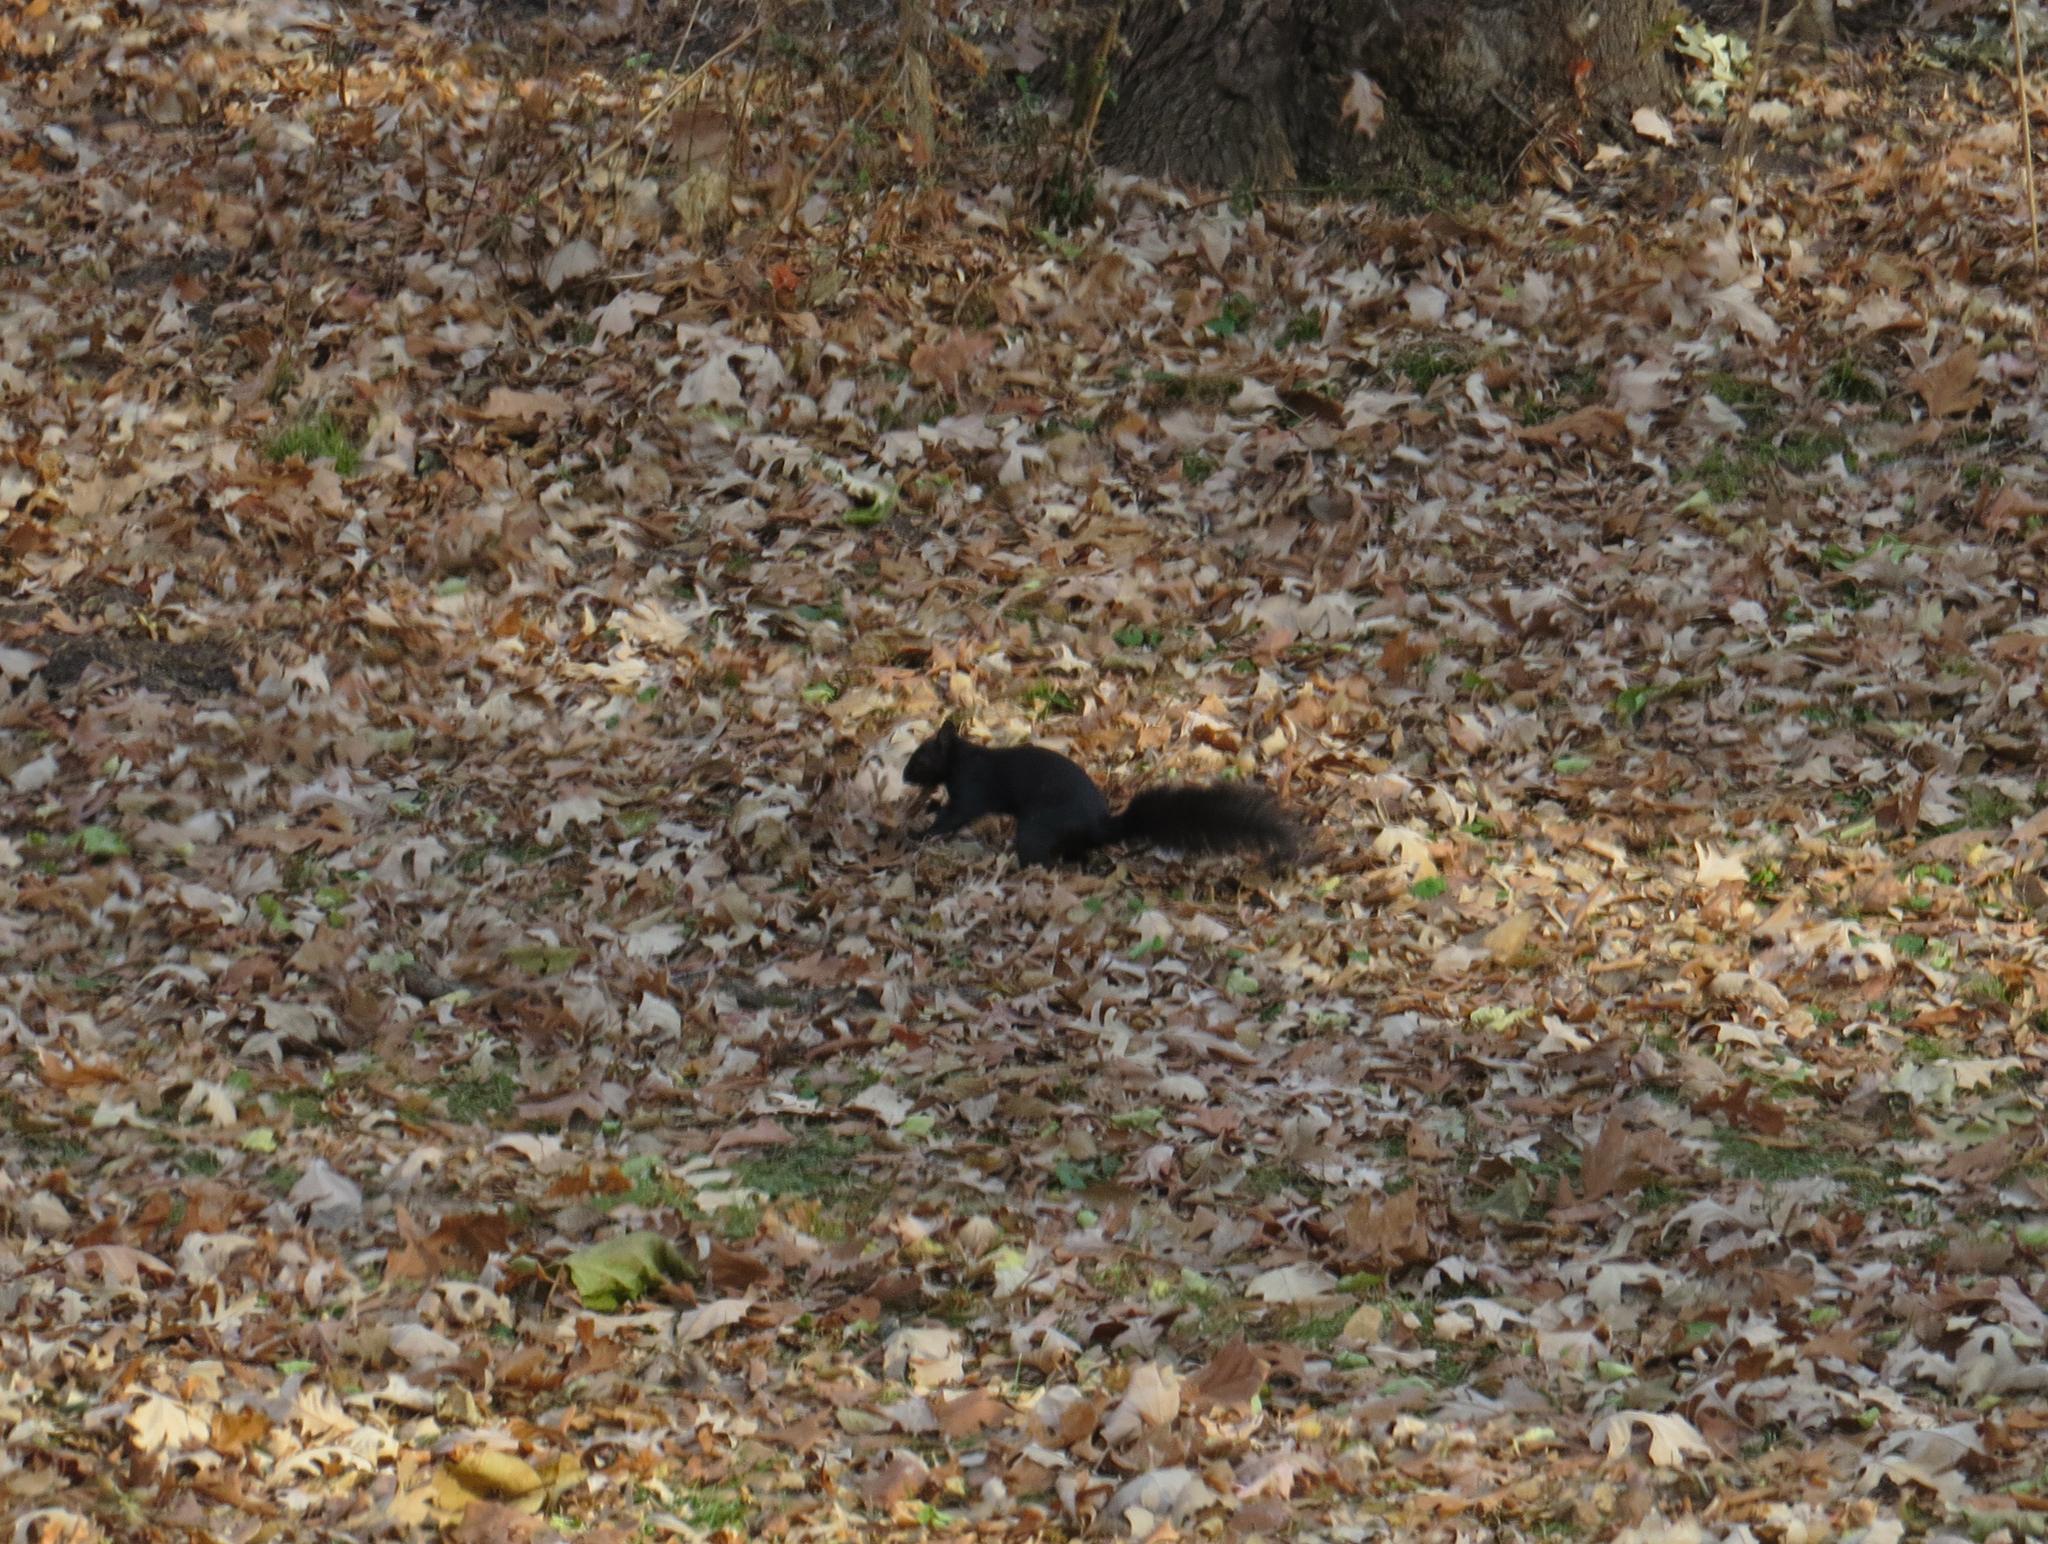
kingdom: Animalia
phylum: Chordata
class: Mammalia
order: Rodentia
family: Sciuridae
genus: Sciurus
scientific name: Sciurus carolinensis
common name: Eastern gray squirrel
